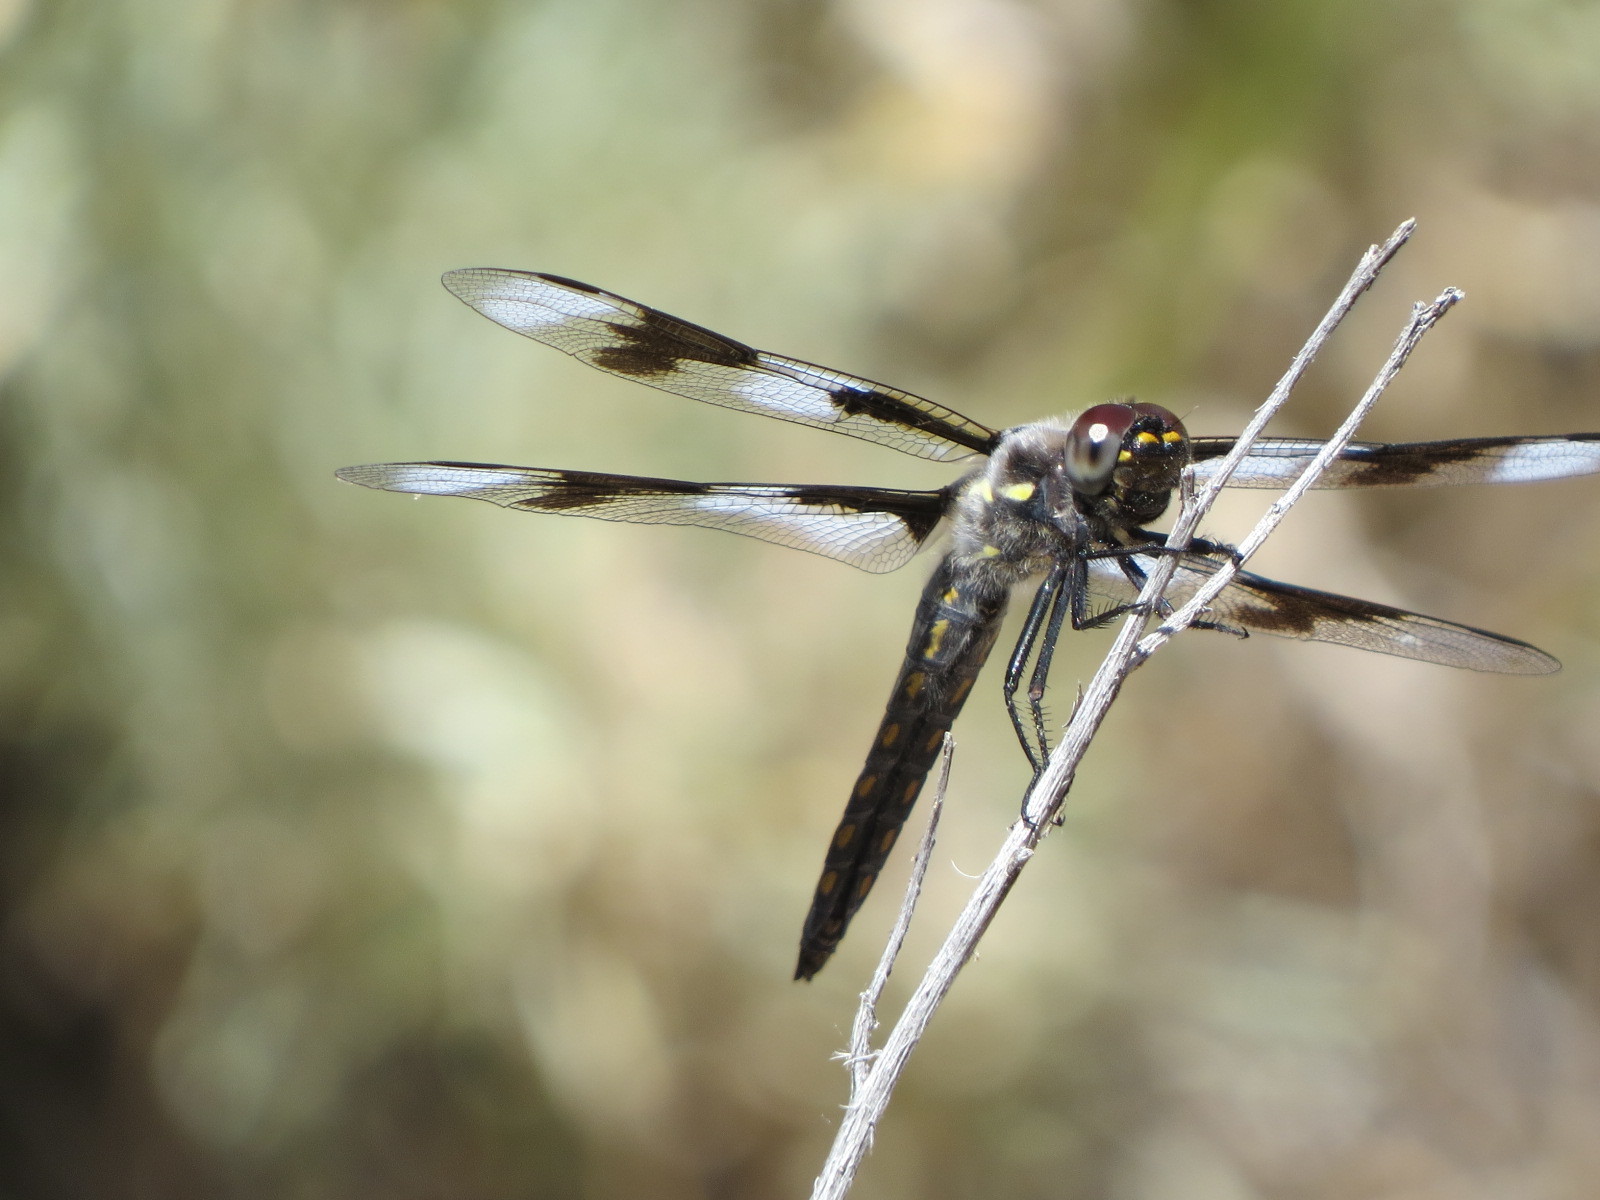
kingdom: Animalia
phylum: Arthropoda
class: Insecta
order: Odonata
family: Libellulidae
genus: Libellula
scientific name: Libellula forensis
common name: Eight-spotted skimmer
